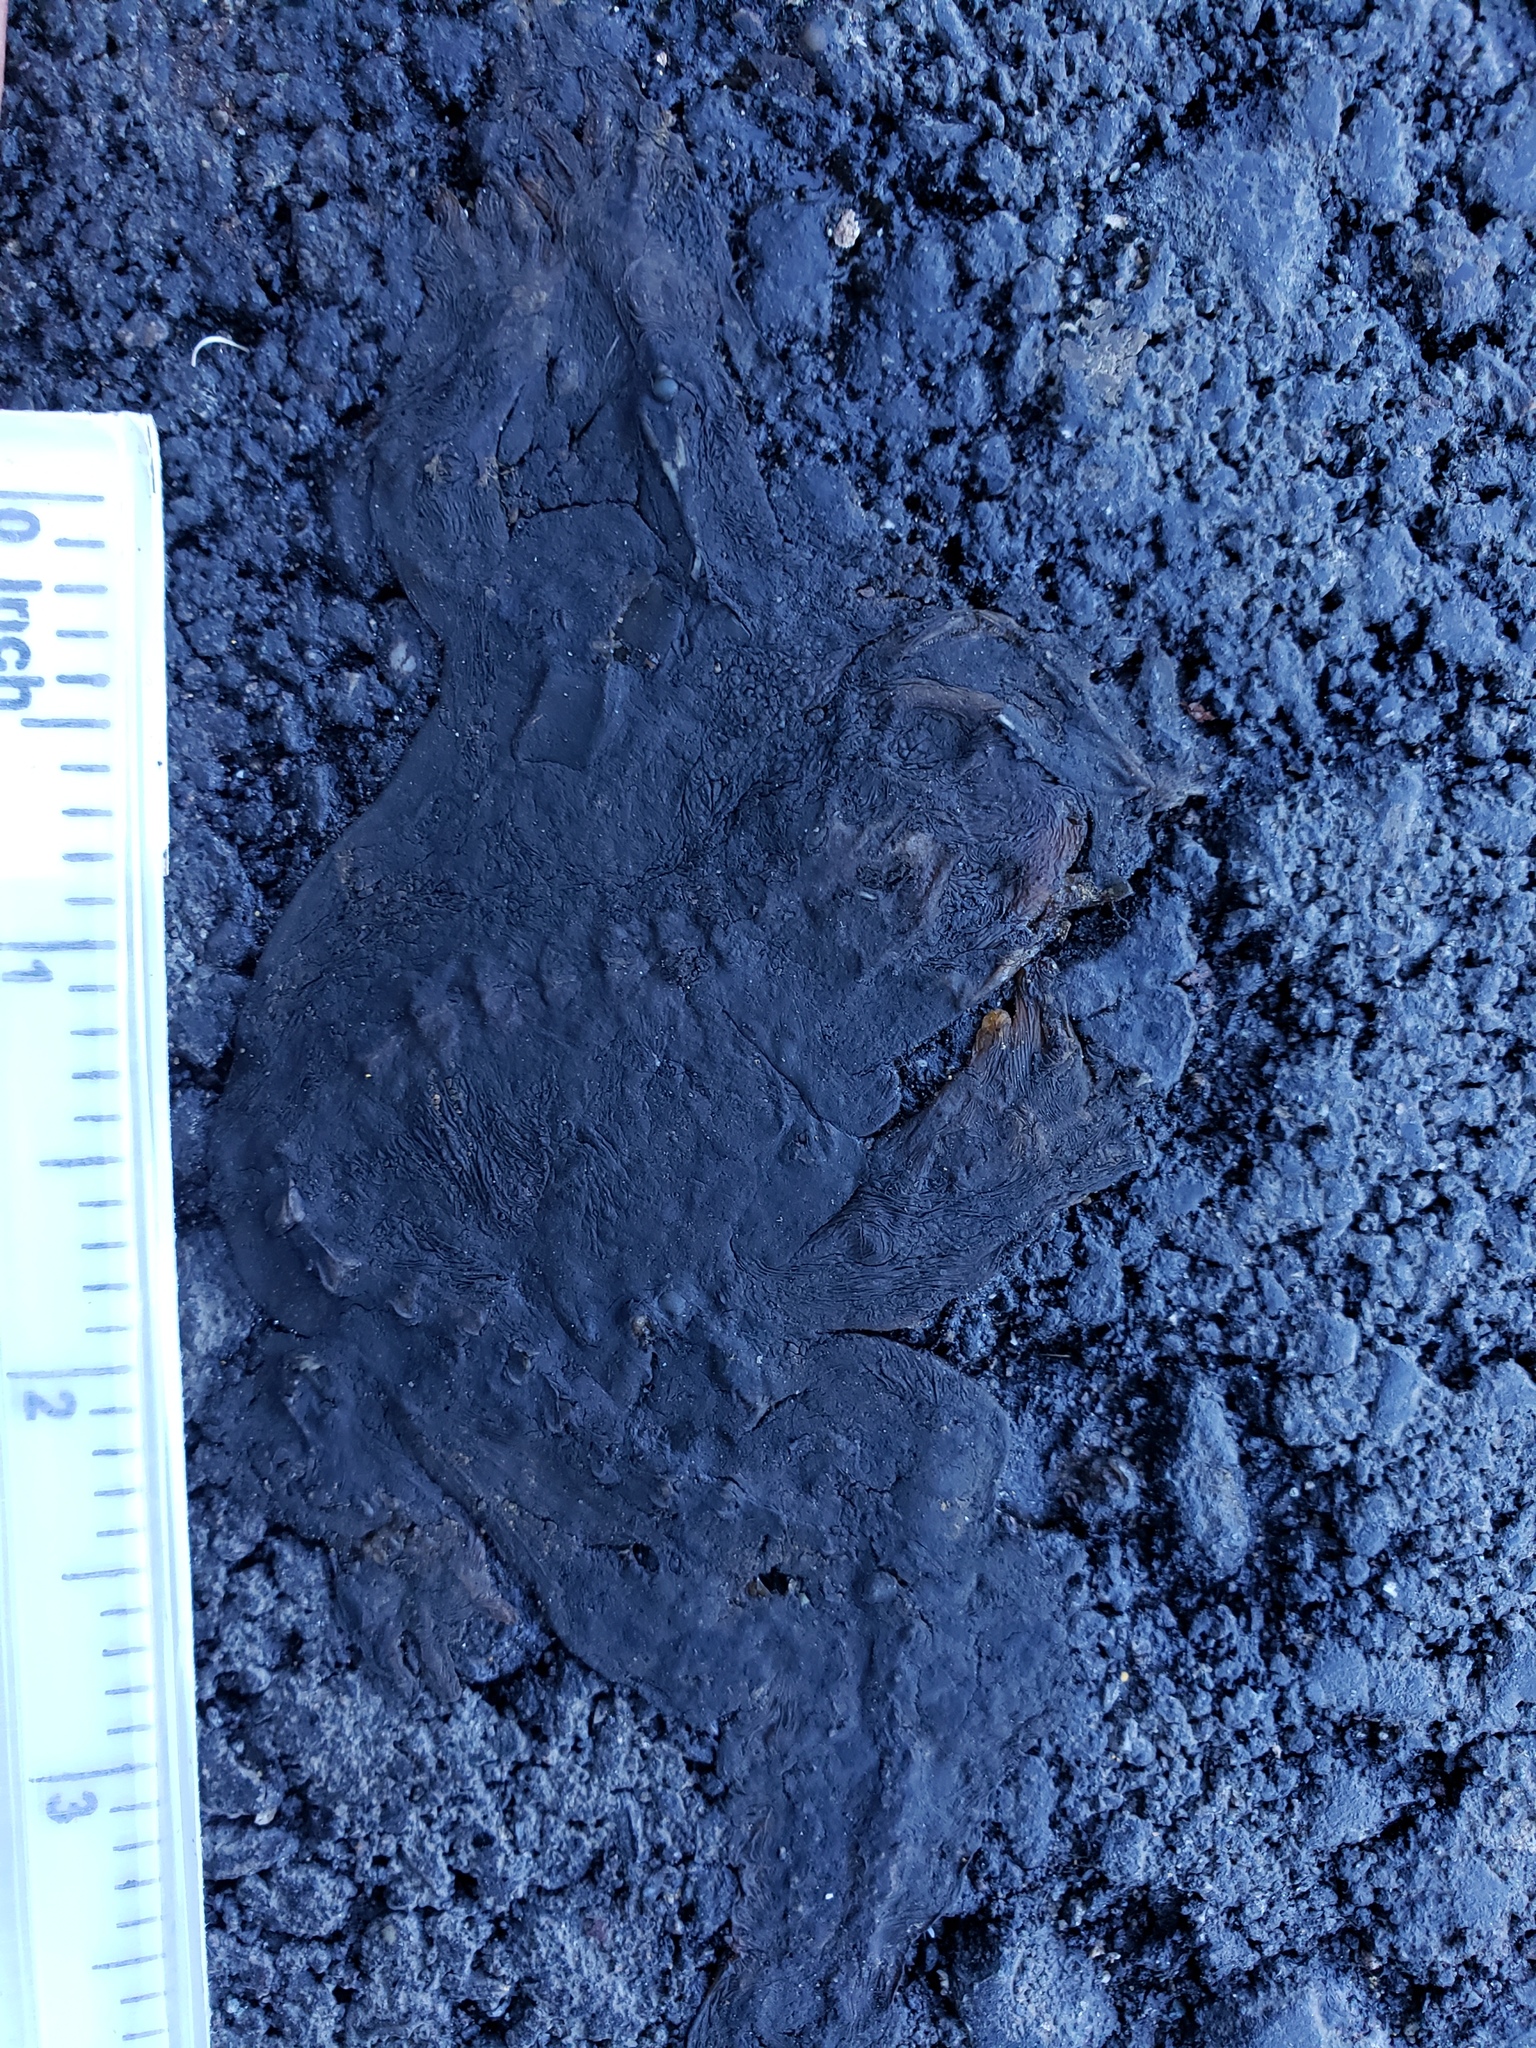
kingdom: Animalia
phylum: Chordata
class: Amphibia
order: Caudata
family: Salamandridae
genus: Taricha
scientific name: Taricha
